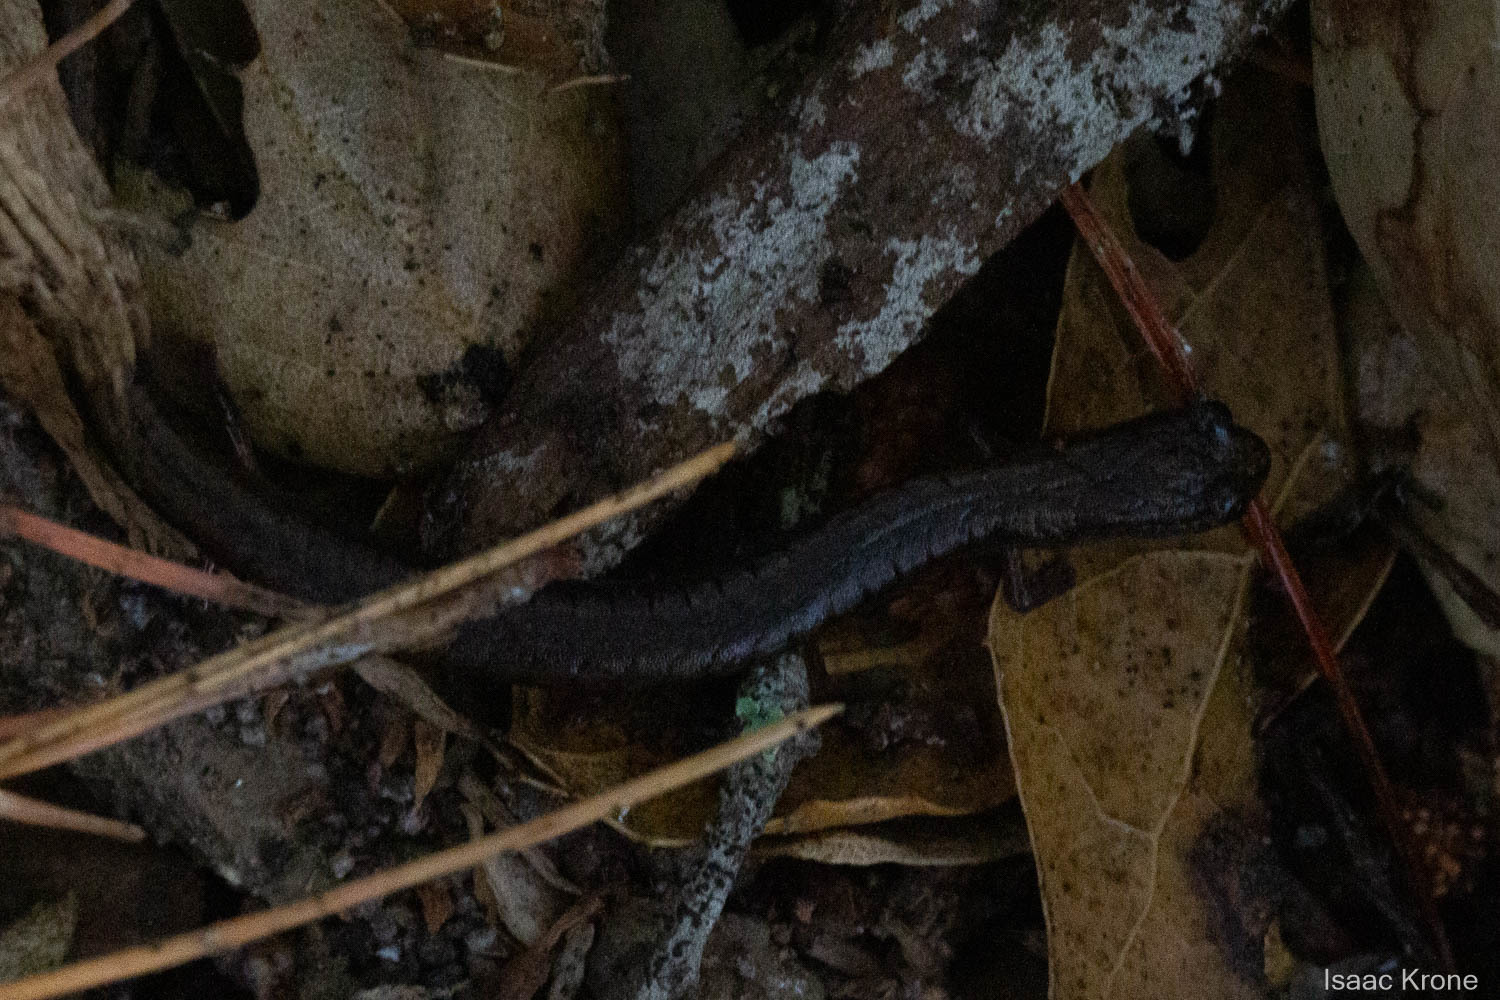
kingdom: Animalia
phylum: Chordata
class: Amphibia
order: Caudata
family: Plethodontidae
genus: Batrachoseps
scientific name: Batrachoseps attenuatus
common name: California slender salamander
